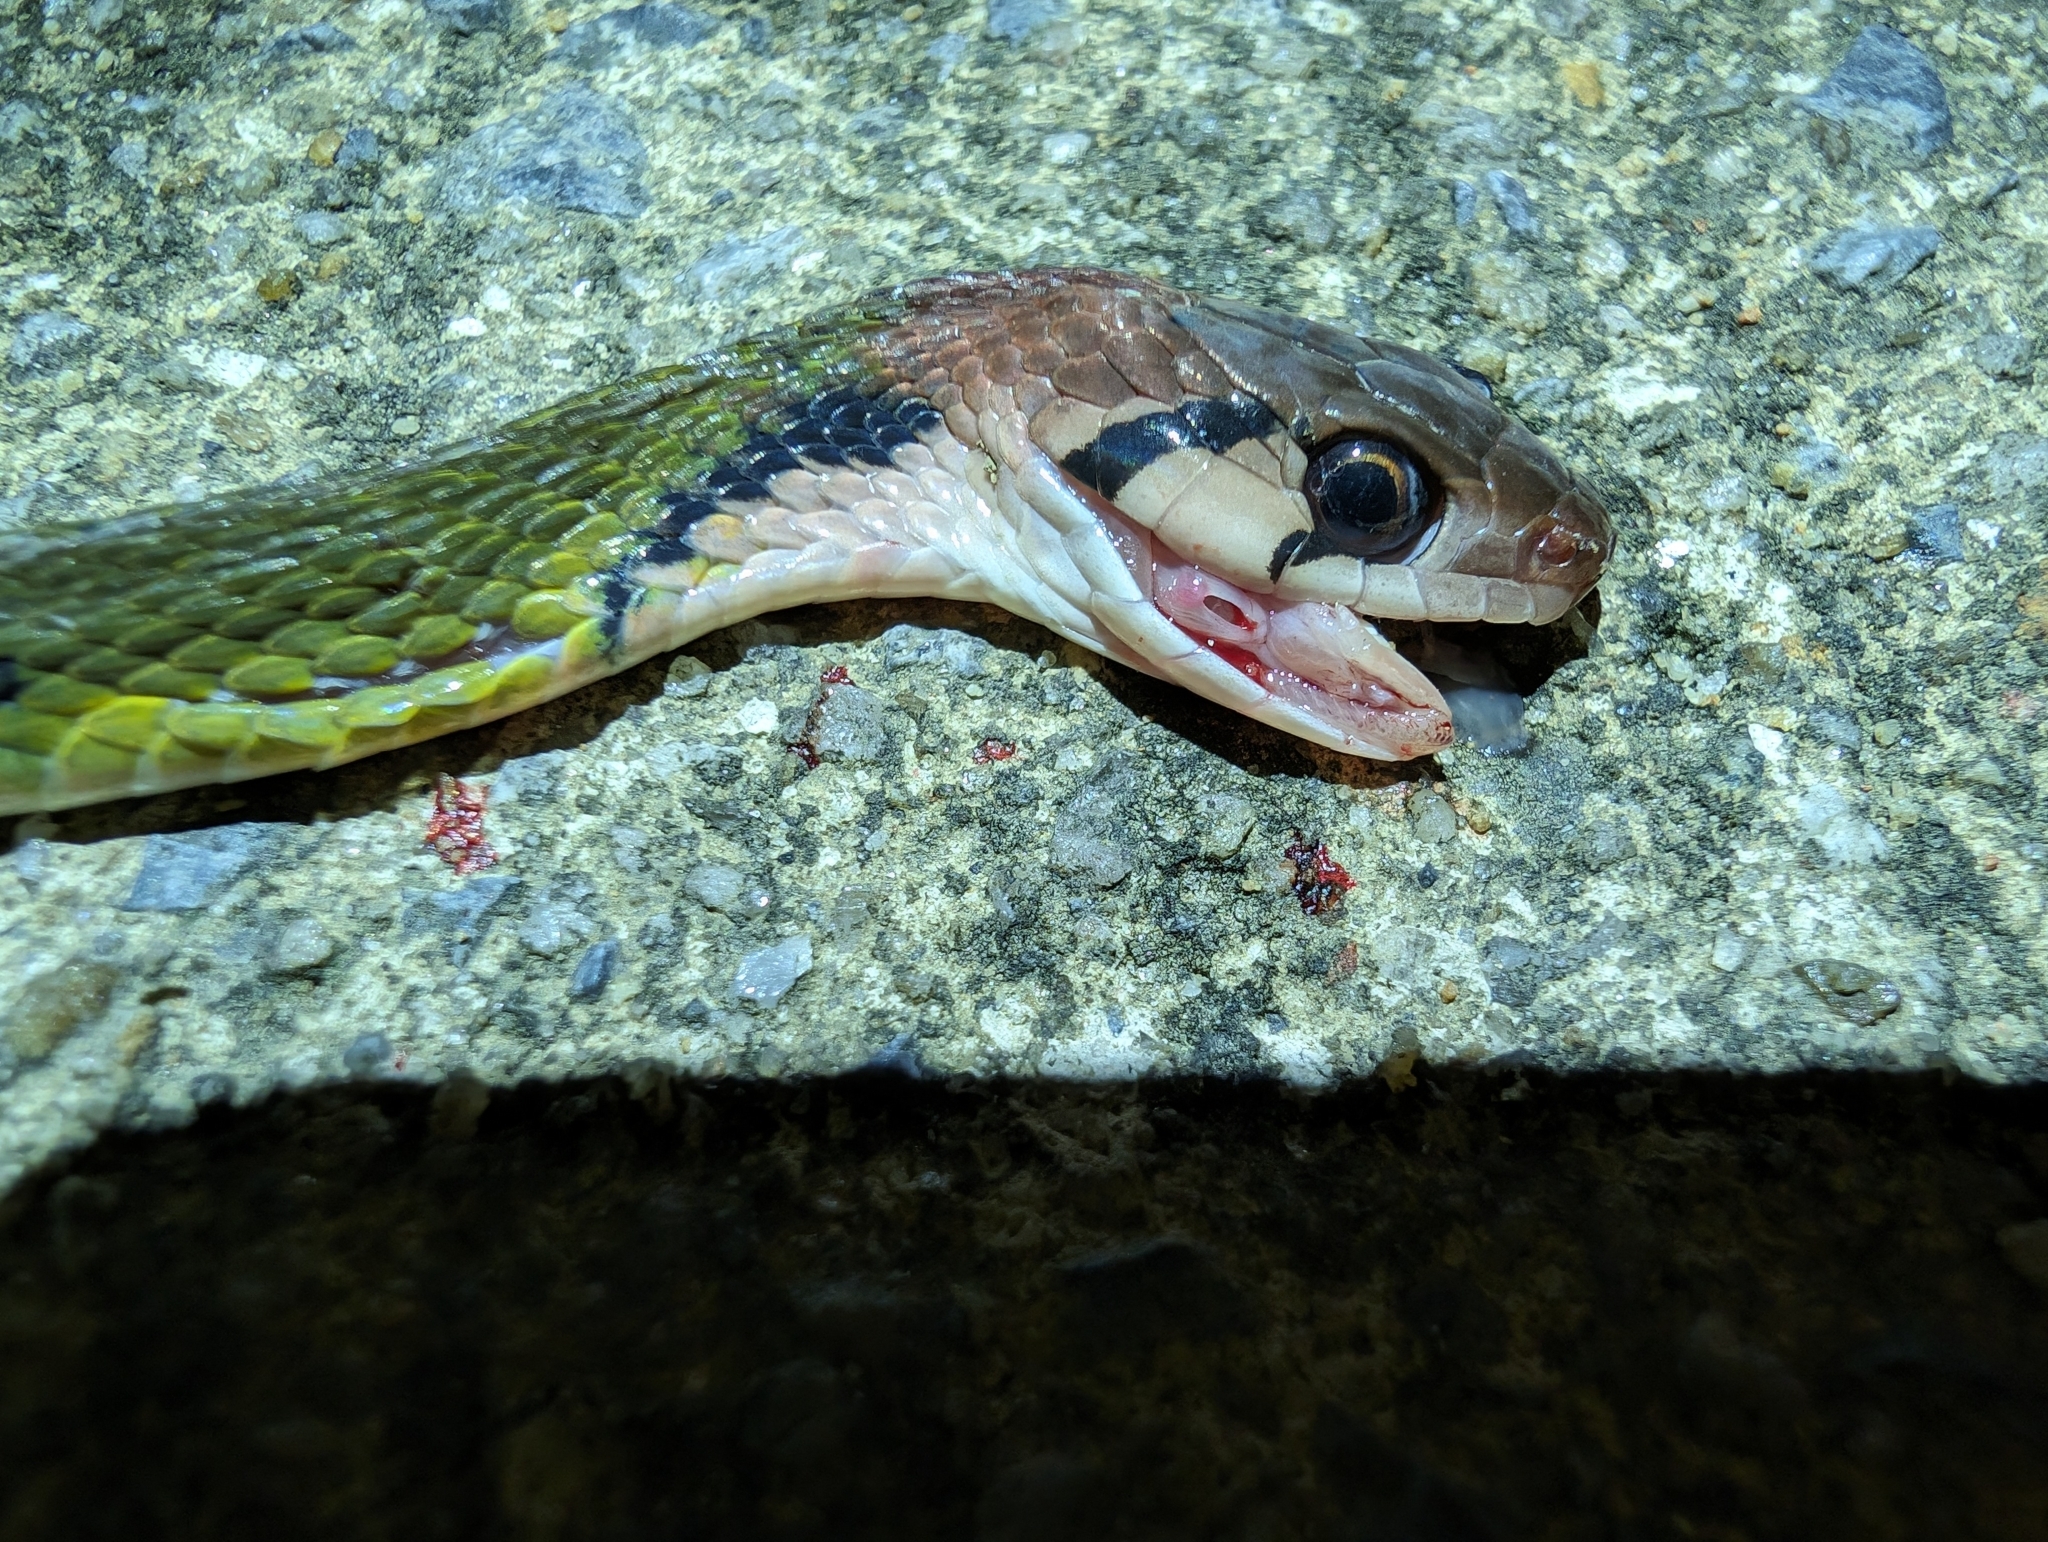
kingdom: Animalia
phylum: Chordata
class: Squamata
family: Colubridae
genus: Rhabdophis
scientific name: Rhabdophis nigrocinctus
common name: Green keelback
